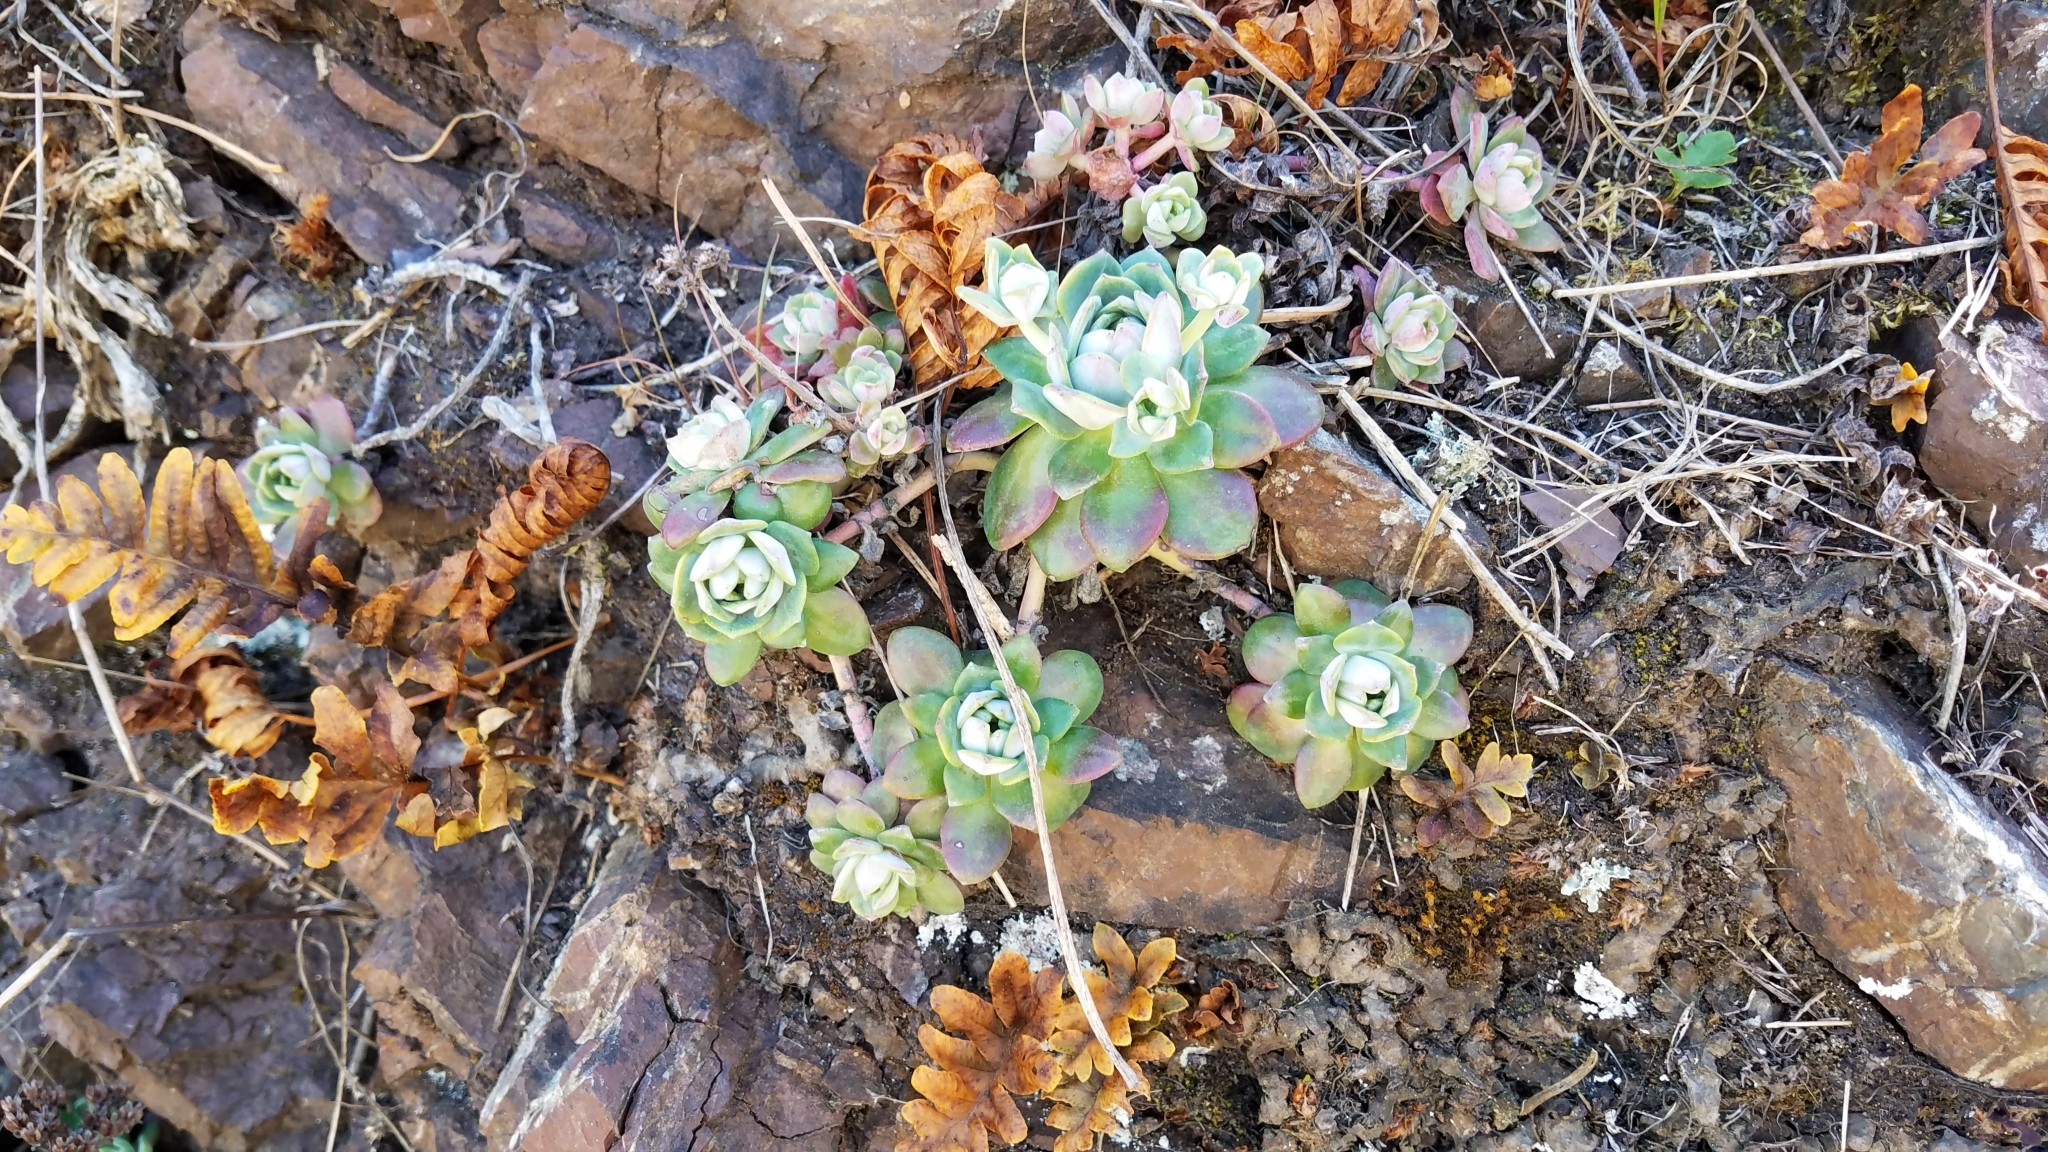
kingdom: Plantae
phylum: Tracheophyta
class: Magnoliopsida
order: Saxifragales
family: Crassulaceae
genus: Sedum
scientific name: Sedum spathulifolium
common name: Colorado stonecrop
